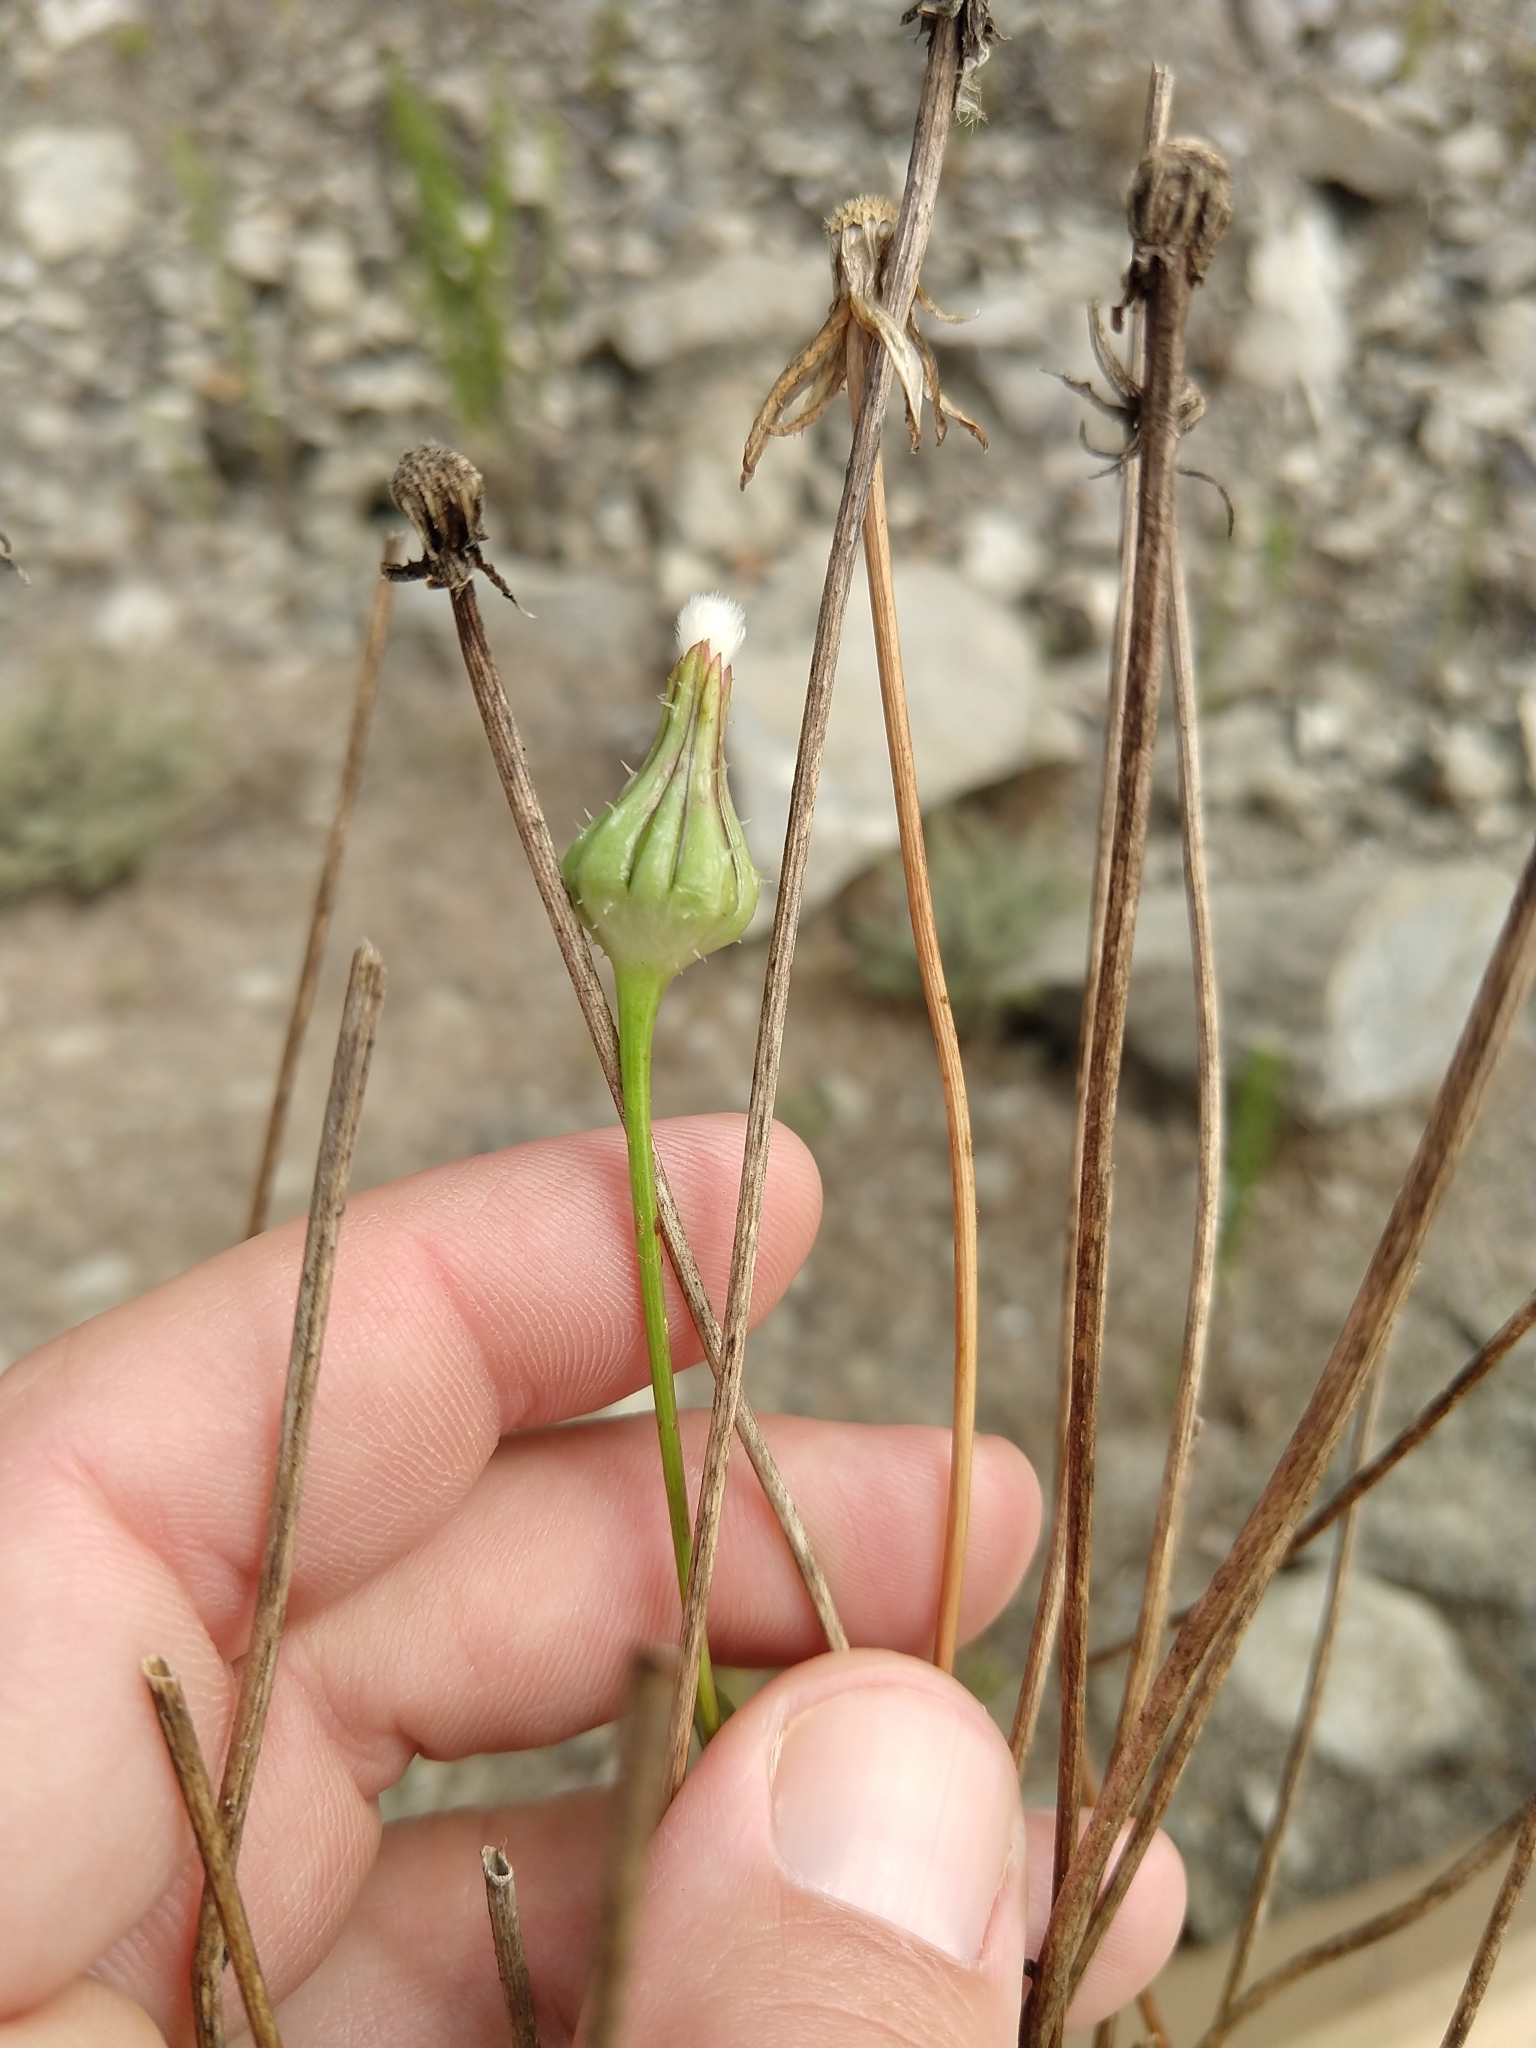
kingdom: Plantae
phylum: Tracheophyta
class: Magnoliopsida
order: Asterales
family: Asteraceae
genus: Urospermum
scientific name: Urospermum picroides
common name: False hawkbit
